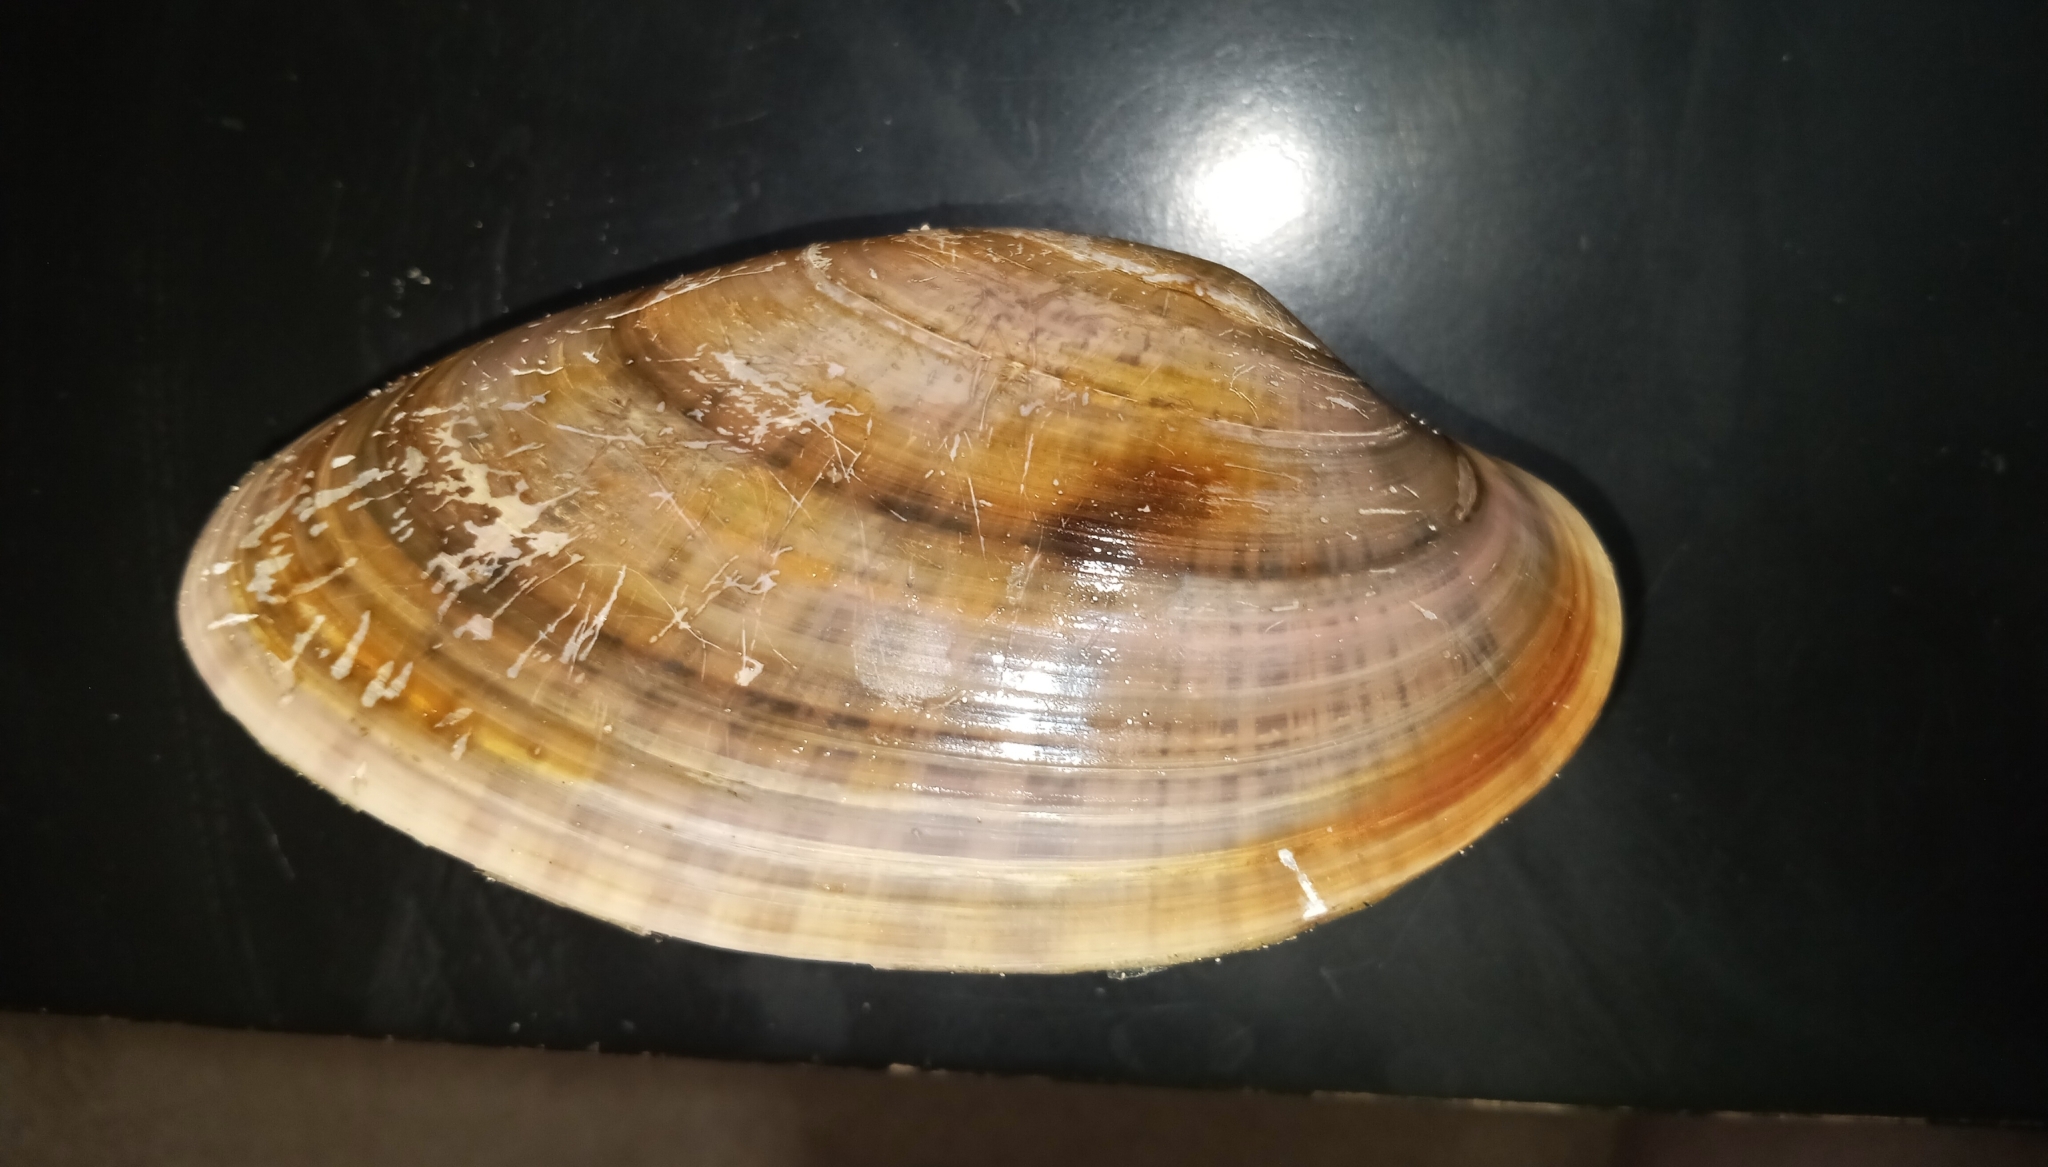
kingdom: Animalia
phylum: Mollusca
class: Bivalvia
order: Venerida
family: Veneridae
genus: Macrocallista
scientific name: Macrocallista nimbosa
